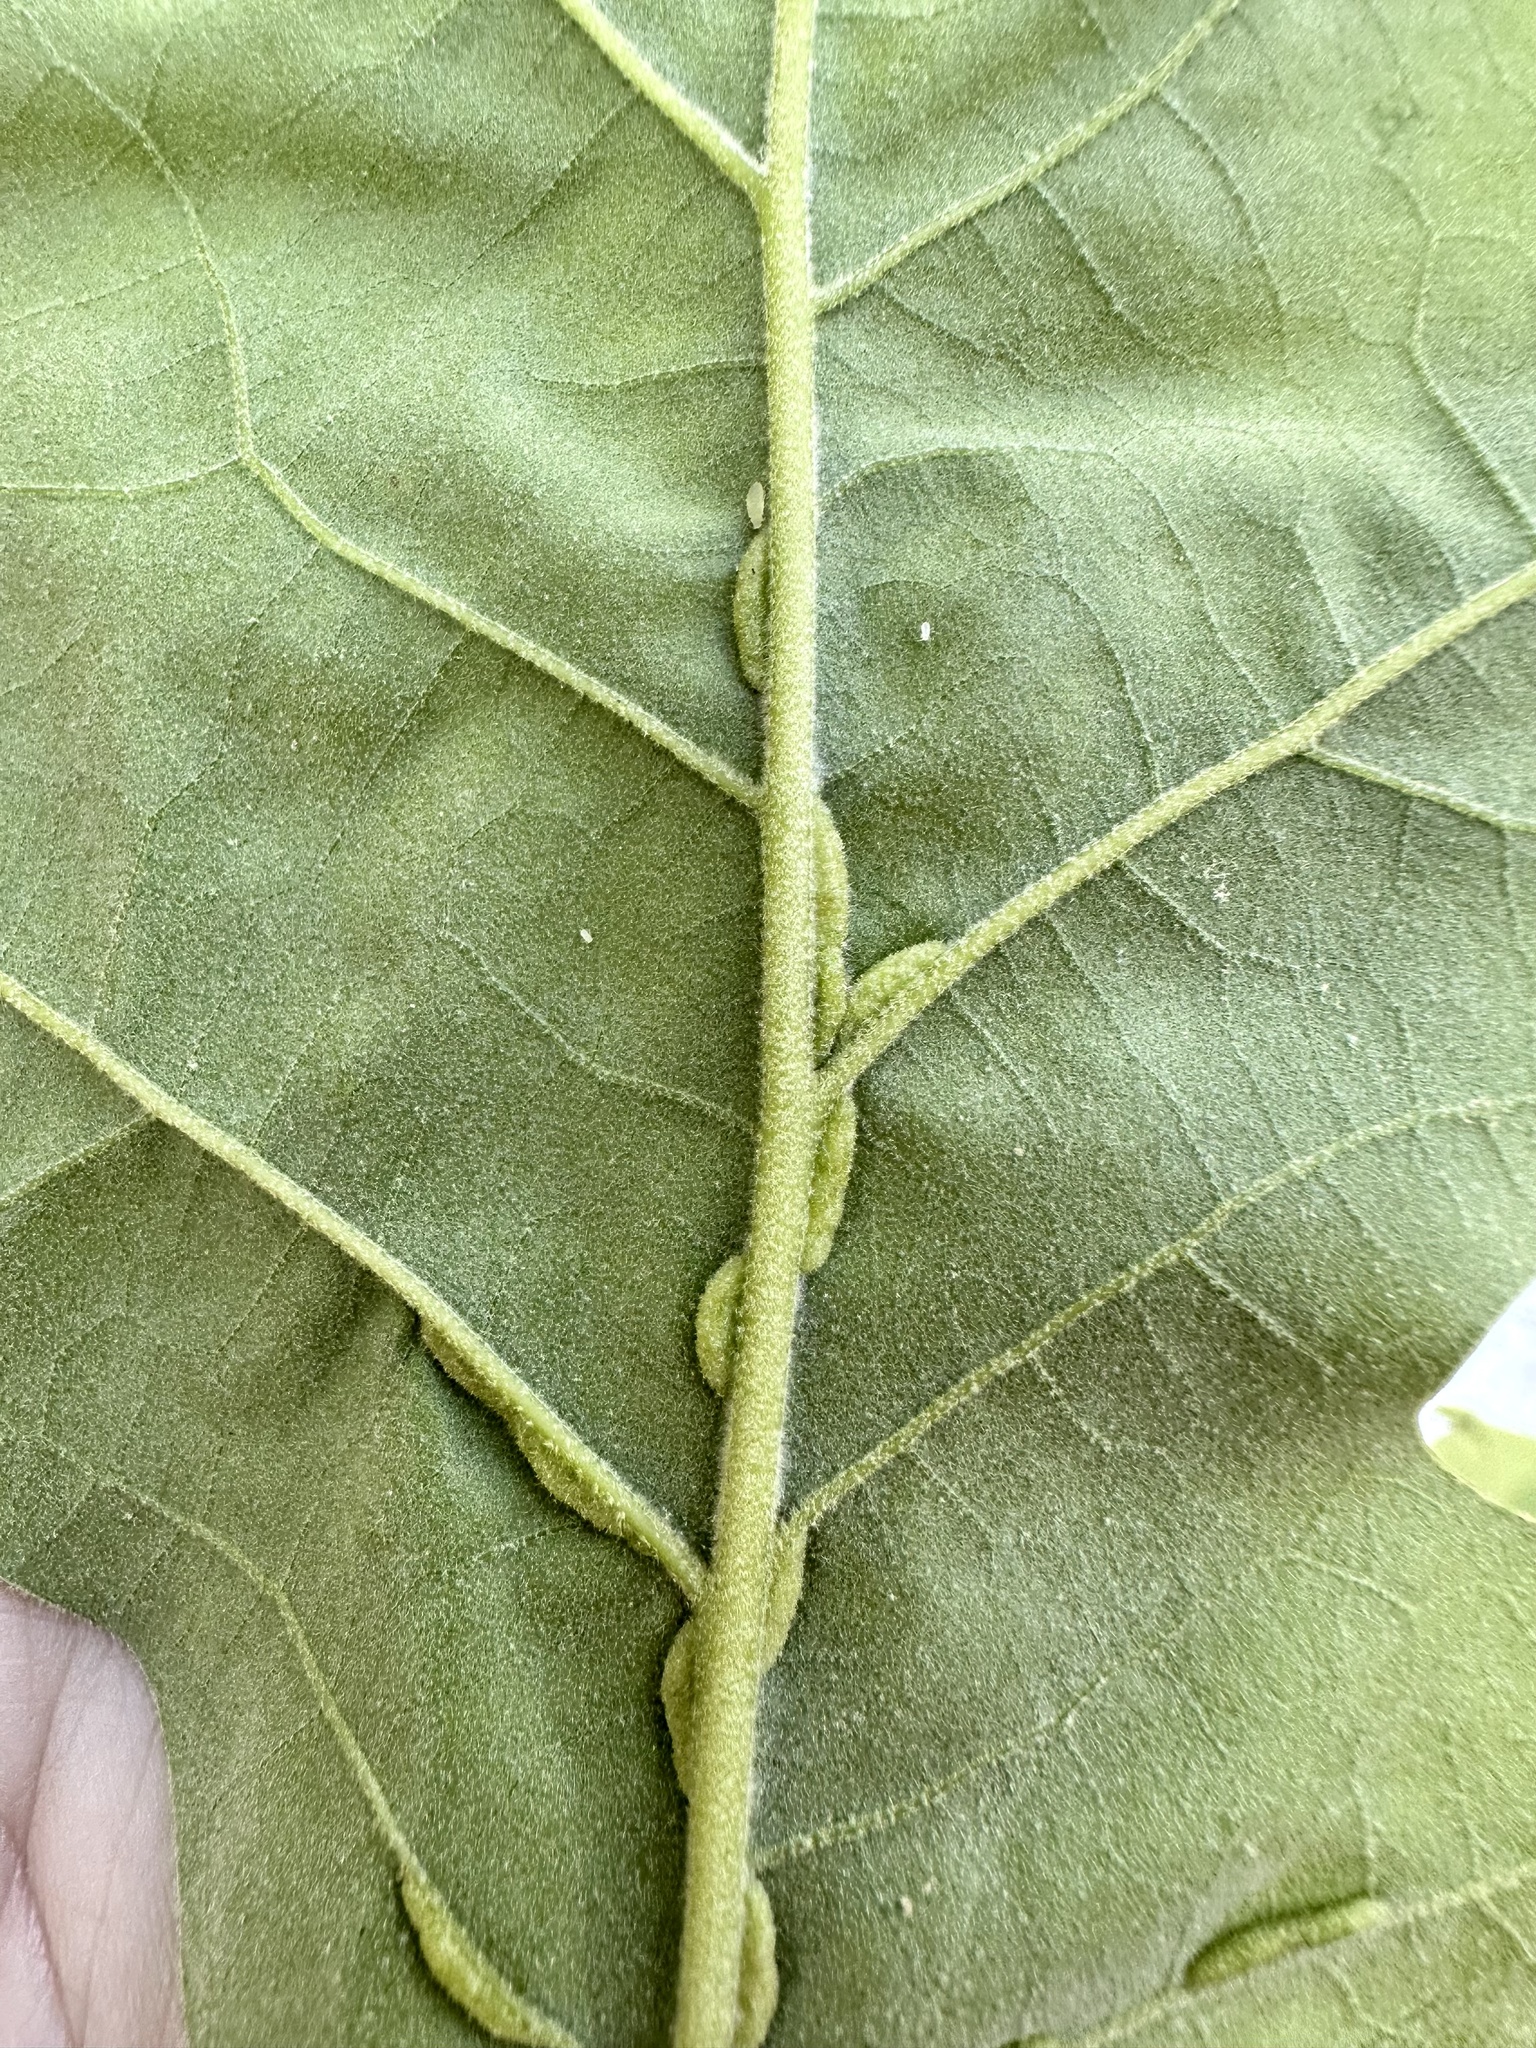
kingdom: Animalia
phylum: Arthropoda
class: Insecta
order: Diptera
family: Cecidomyiidae
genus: Macrodiplosis
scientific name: Macrodiplosis q-orucum
